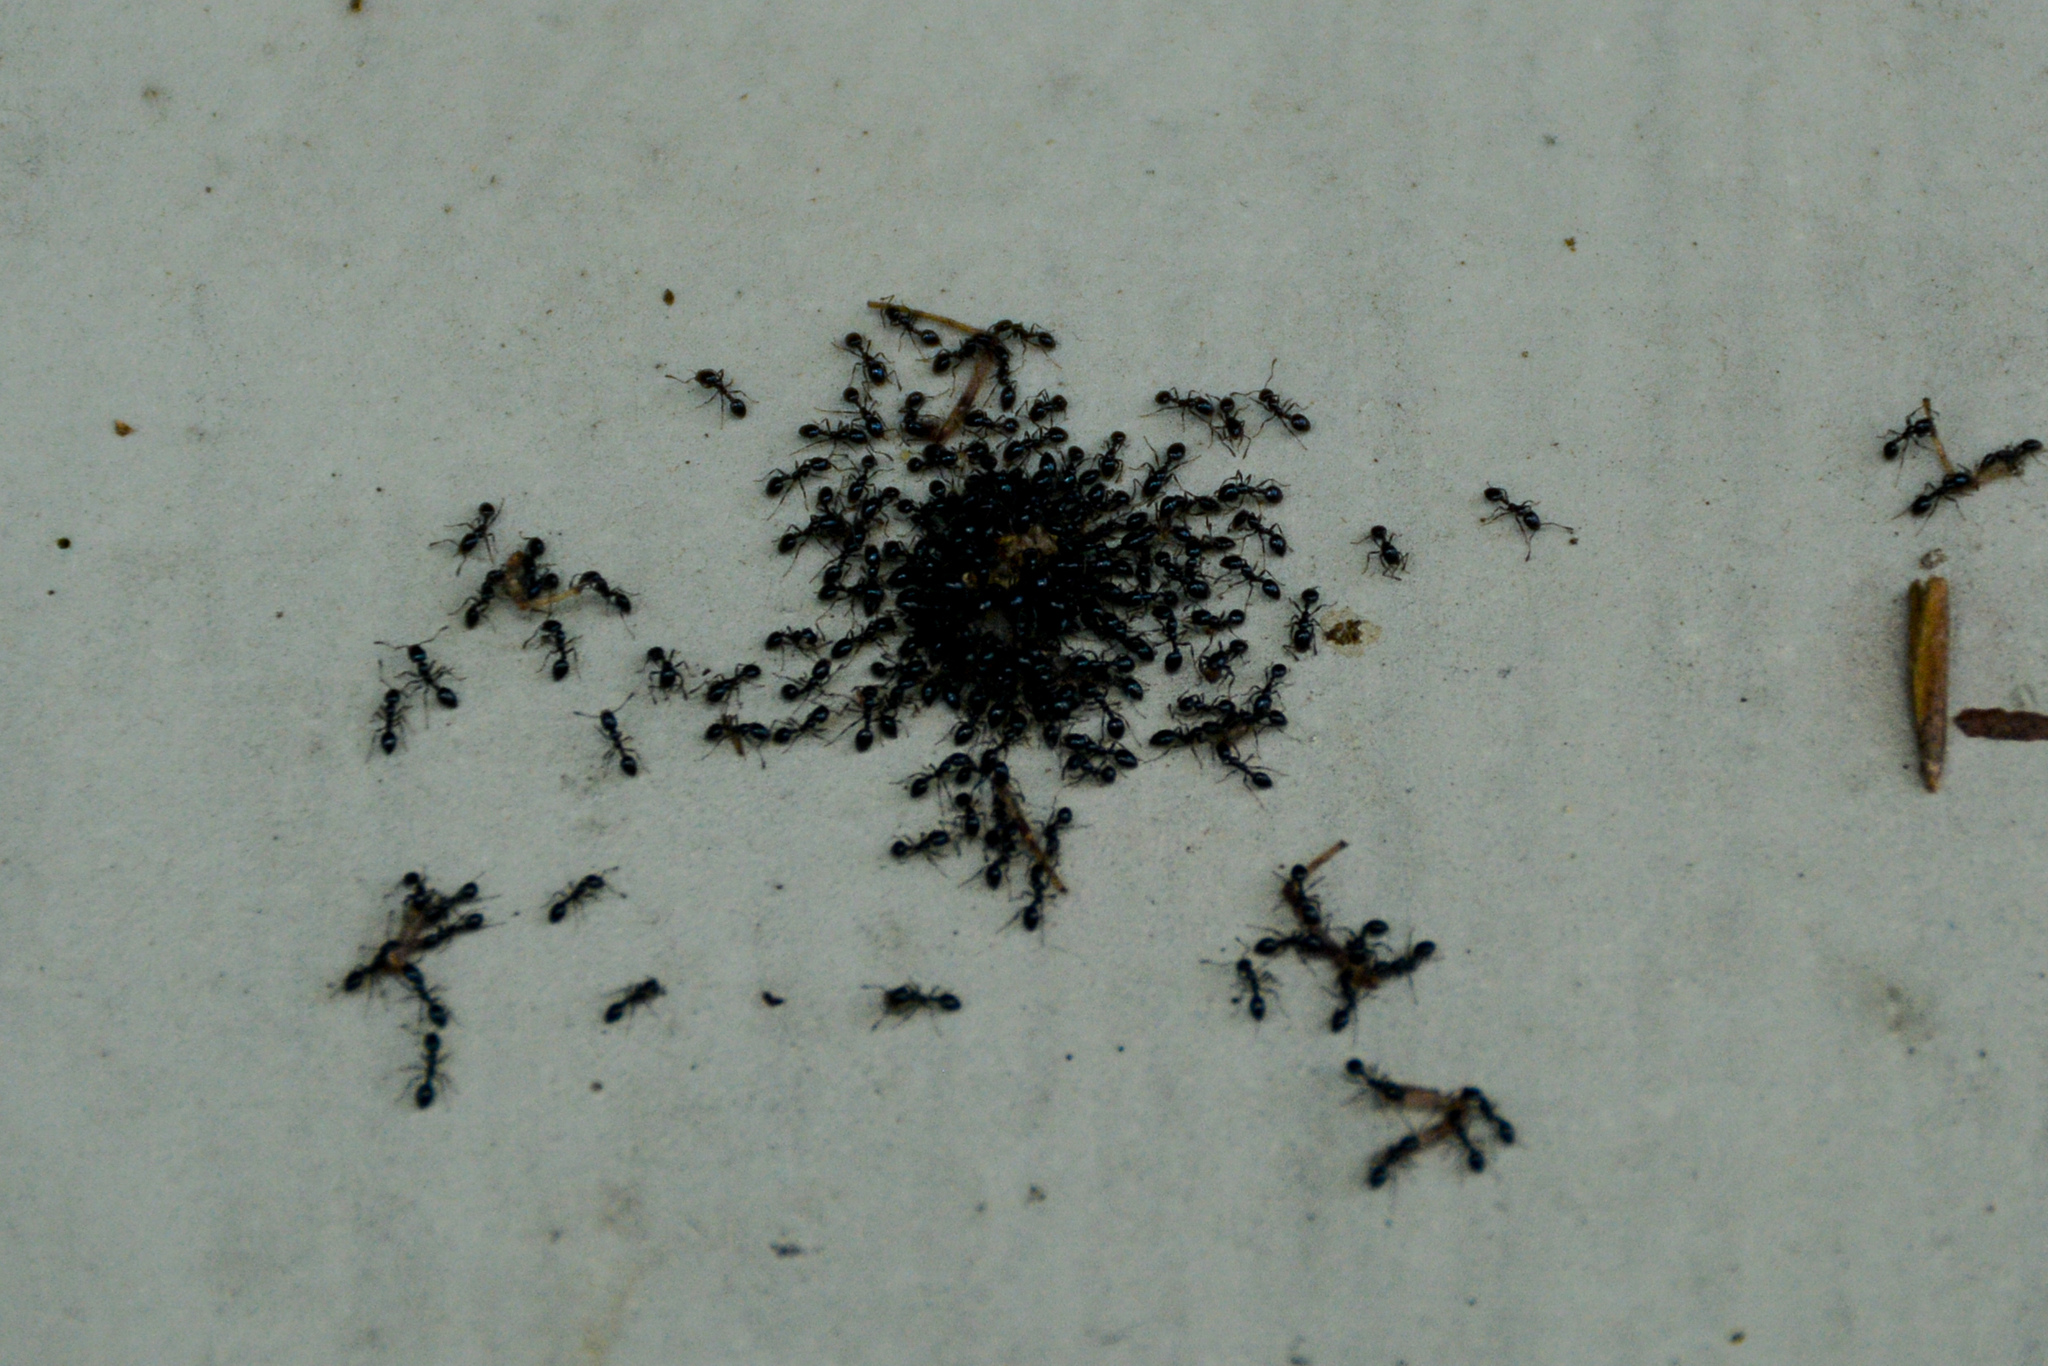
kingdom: Animalia
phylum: Arthropoda
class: Insecta
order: Hymenoptera
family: Formicidae
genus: Monomorium
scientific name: Monomorium minimum
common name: Little black ant
